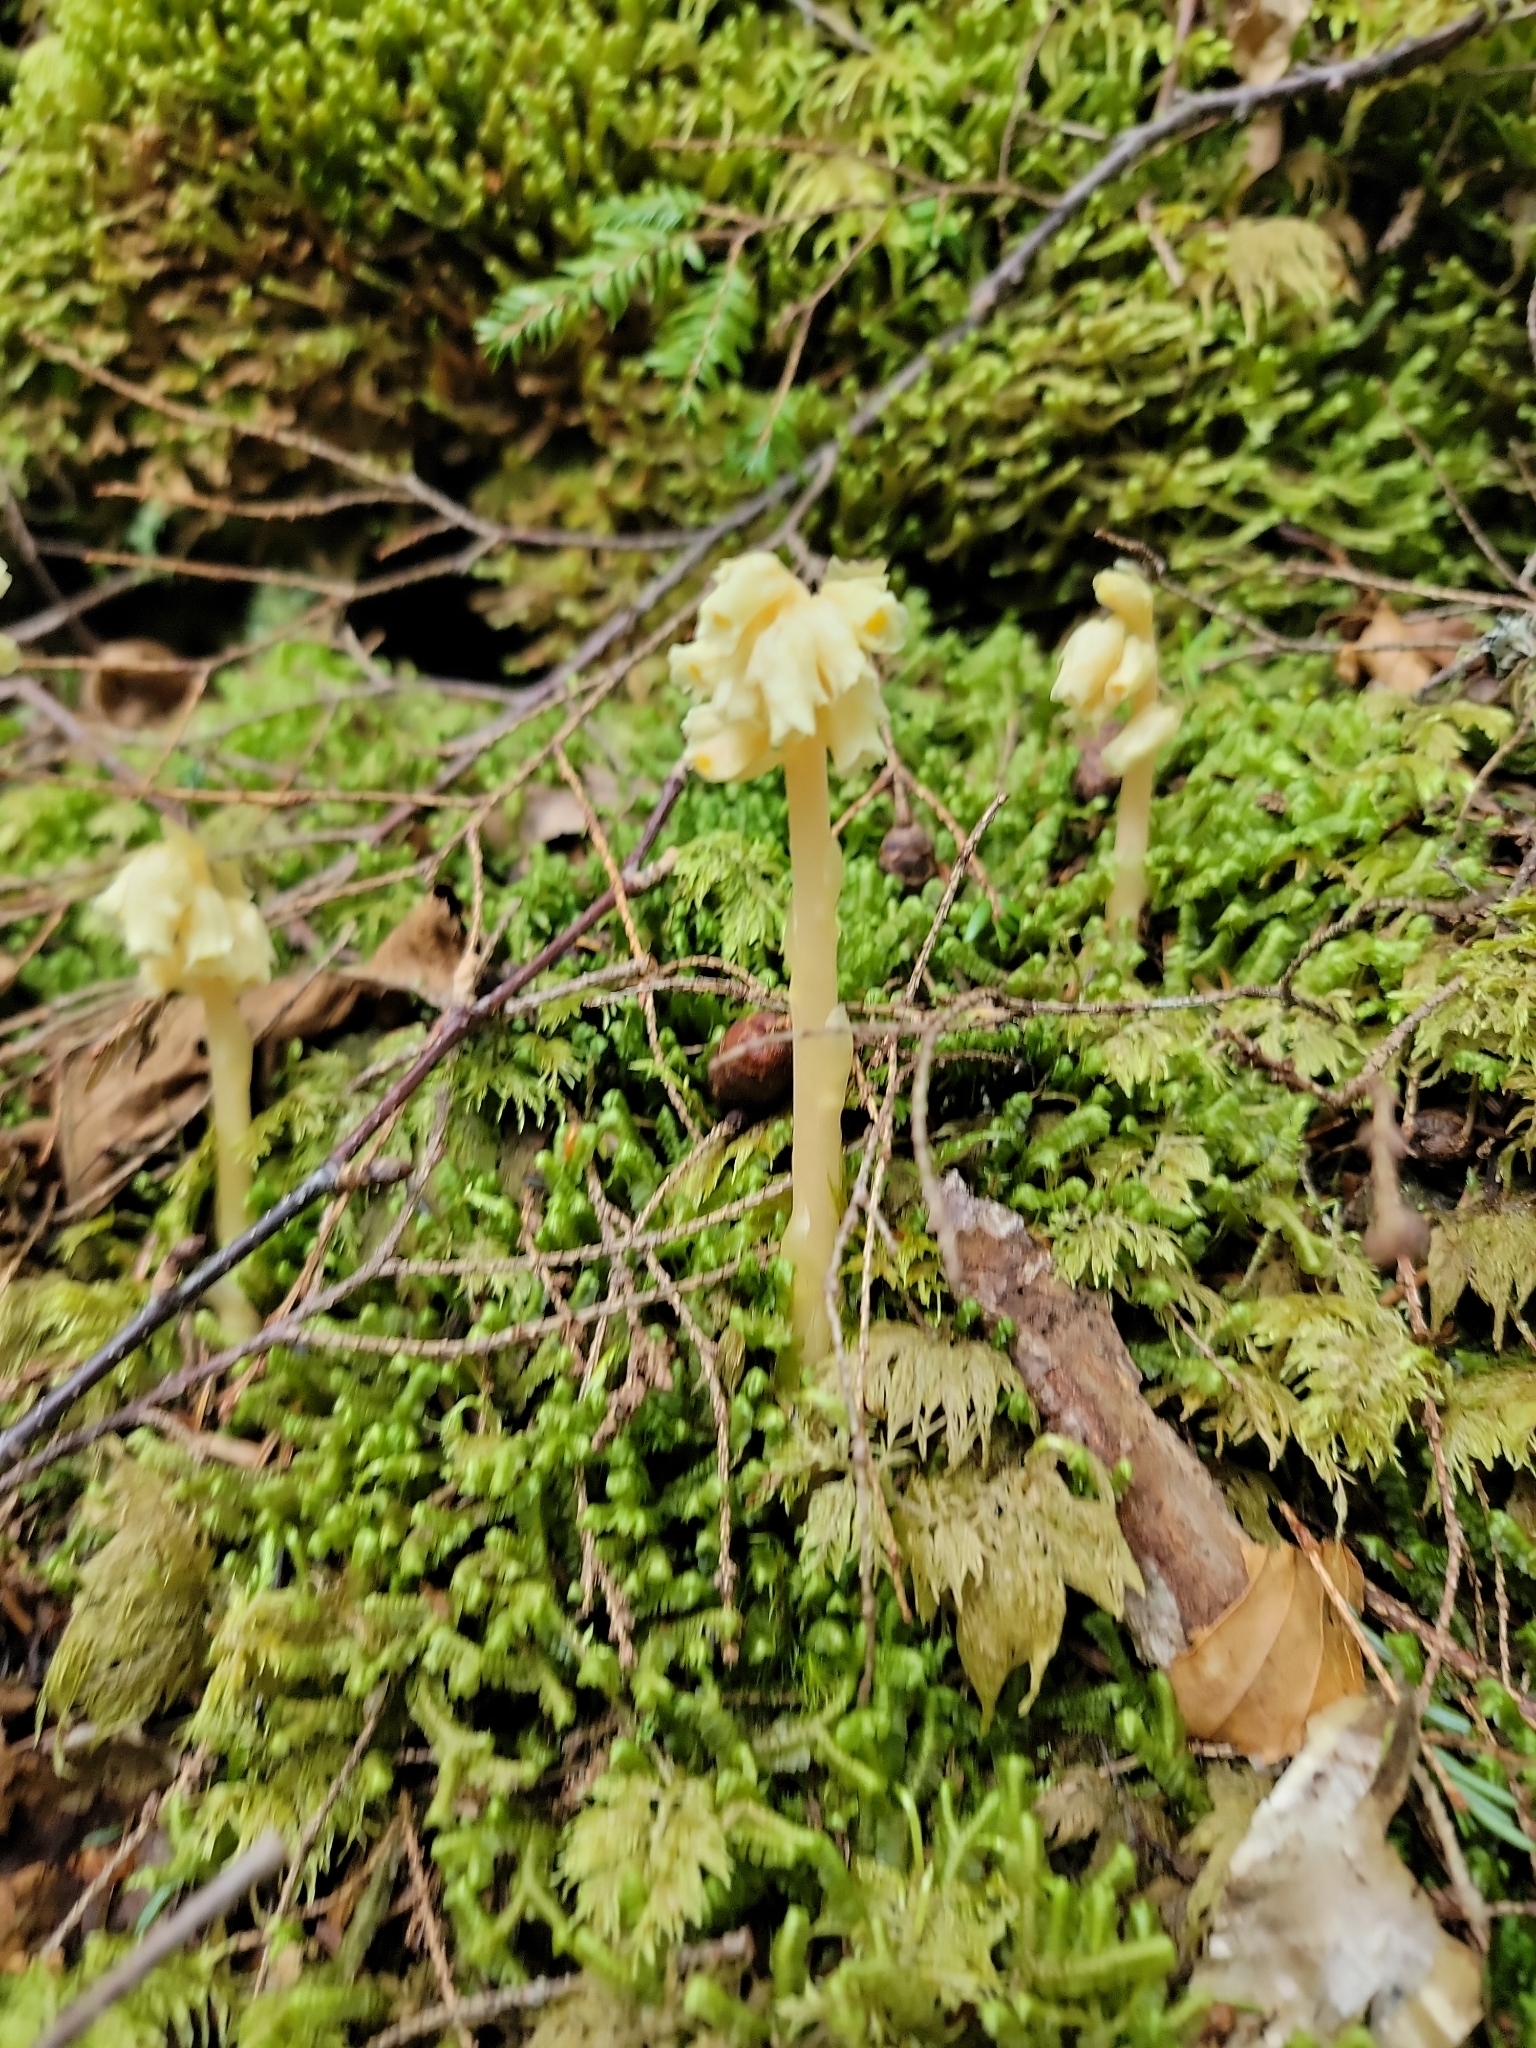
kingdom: Plantae
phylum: Tracheophyta
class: Magnoliopsida
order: Ericales
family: Ericaceae
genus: Hypopitys
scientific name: Hypopitys monotropa
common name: Yellow bird's-nest
